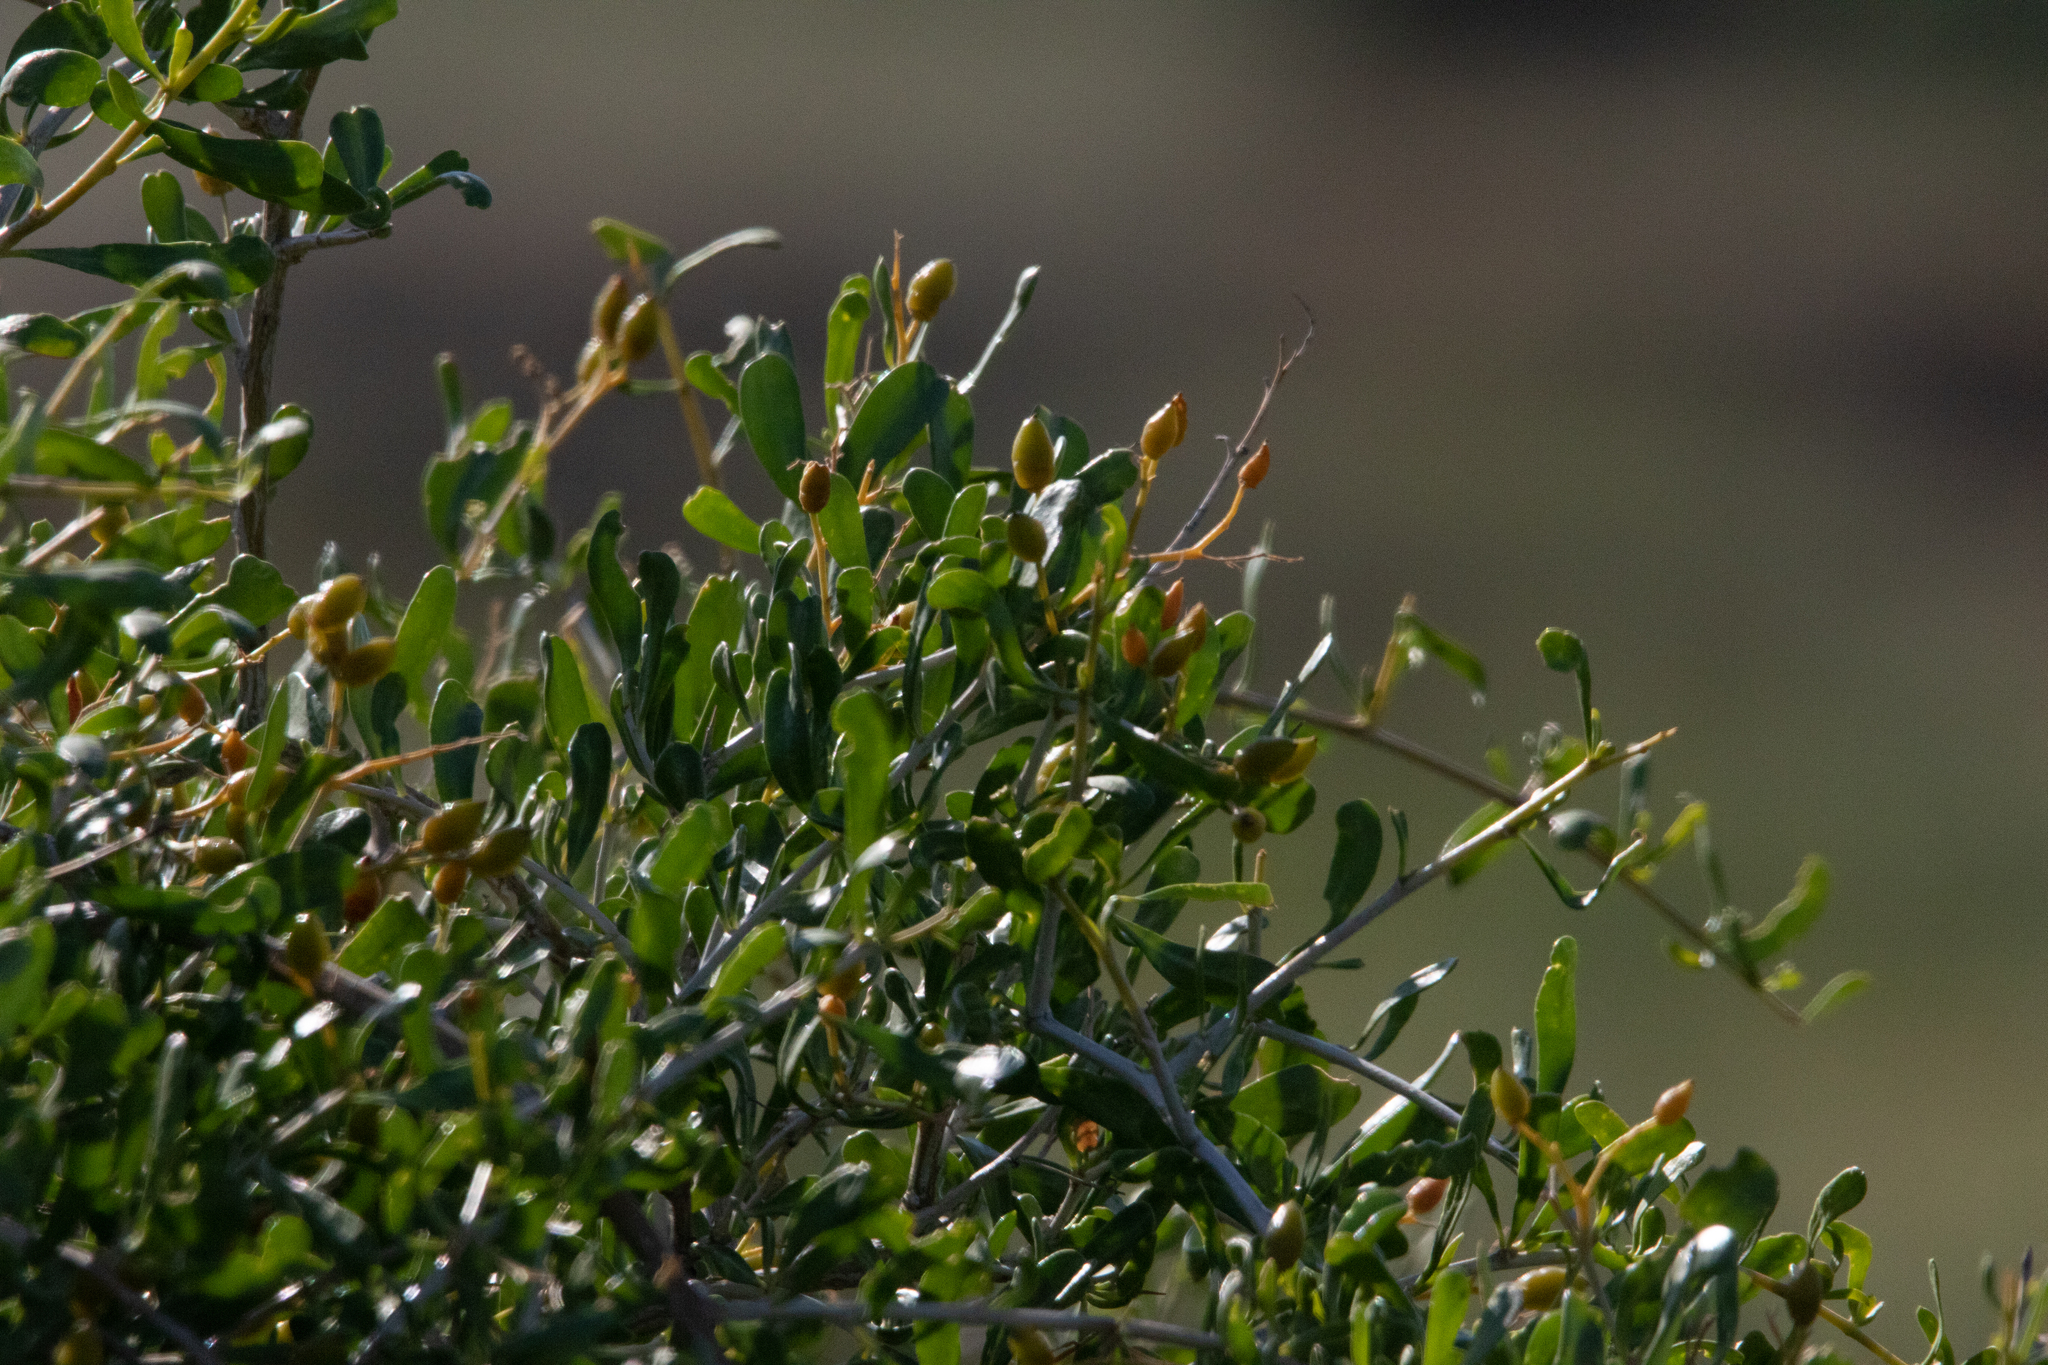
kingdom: Plantae
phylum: Tracheophyta
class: Magnoliopsida
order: Sapindales
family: Nitrariaceae
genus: Nitraria
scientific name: Nitraria schoberi
